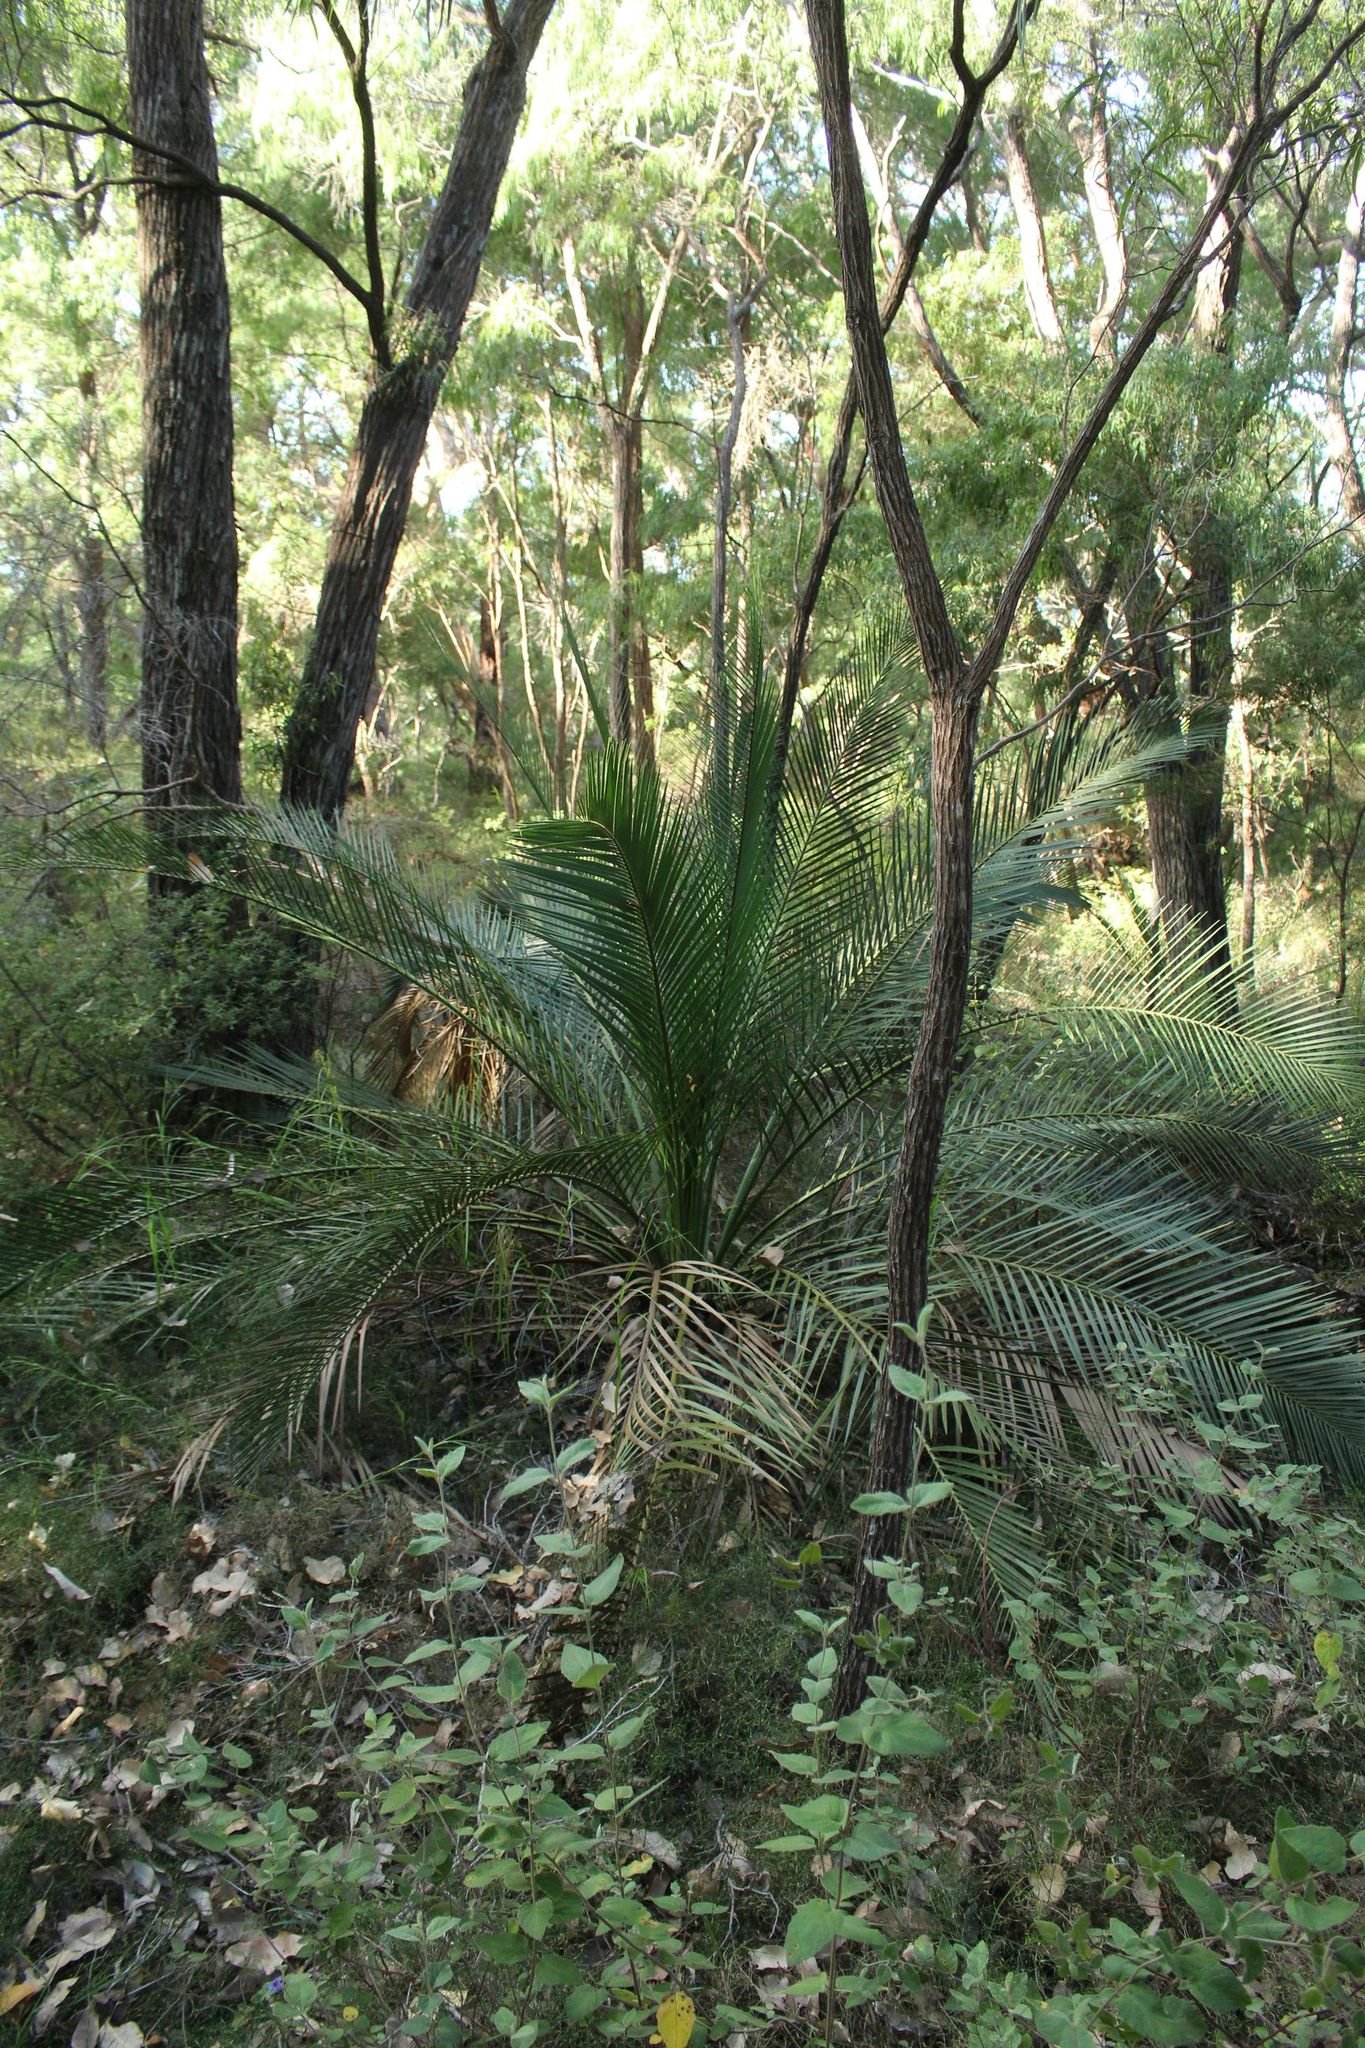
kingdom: Plantae
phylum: Tracheophyta
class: Cycadopsida
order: Cycadales
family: Zamiaceae
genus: Macrozamia
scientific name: Macrozamia riedlei
